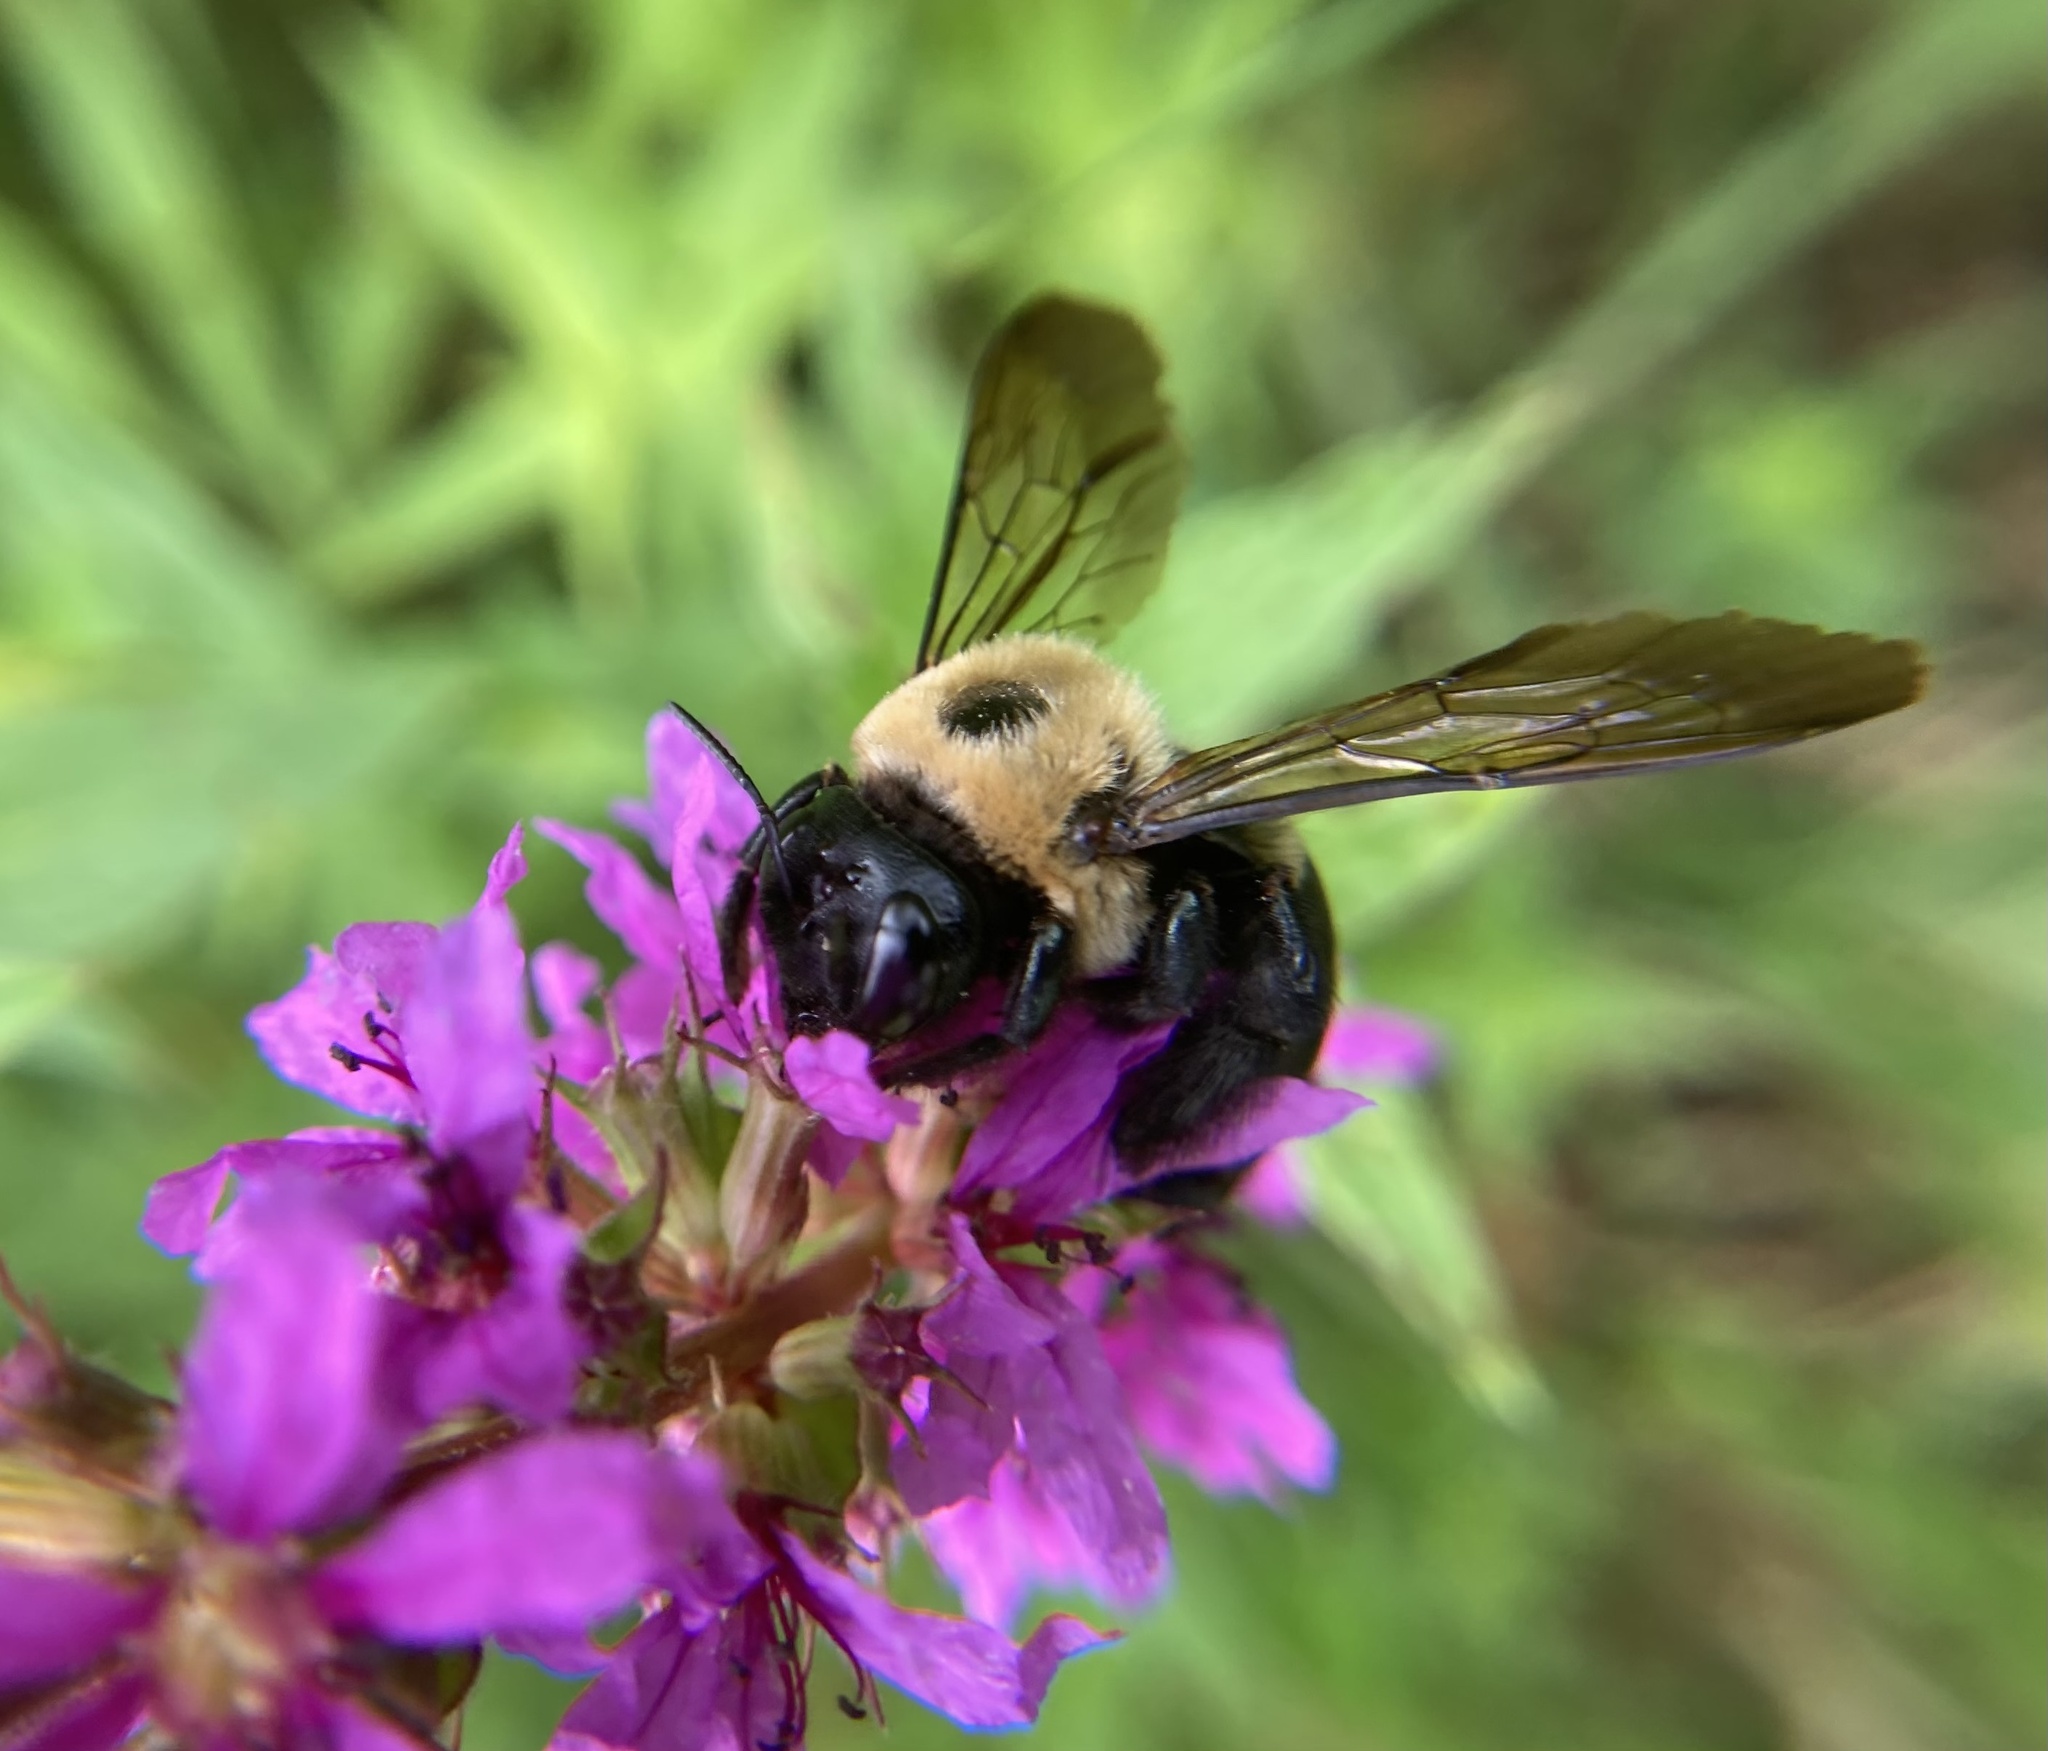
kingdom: Animalia
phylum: Arthropoda
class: Insecta
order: Hymenoptera
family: Apidae
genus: Xylocopa
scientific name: Xylocopa virginica
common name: Carpenter bee
